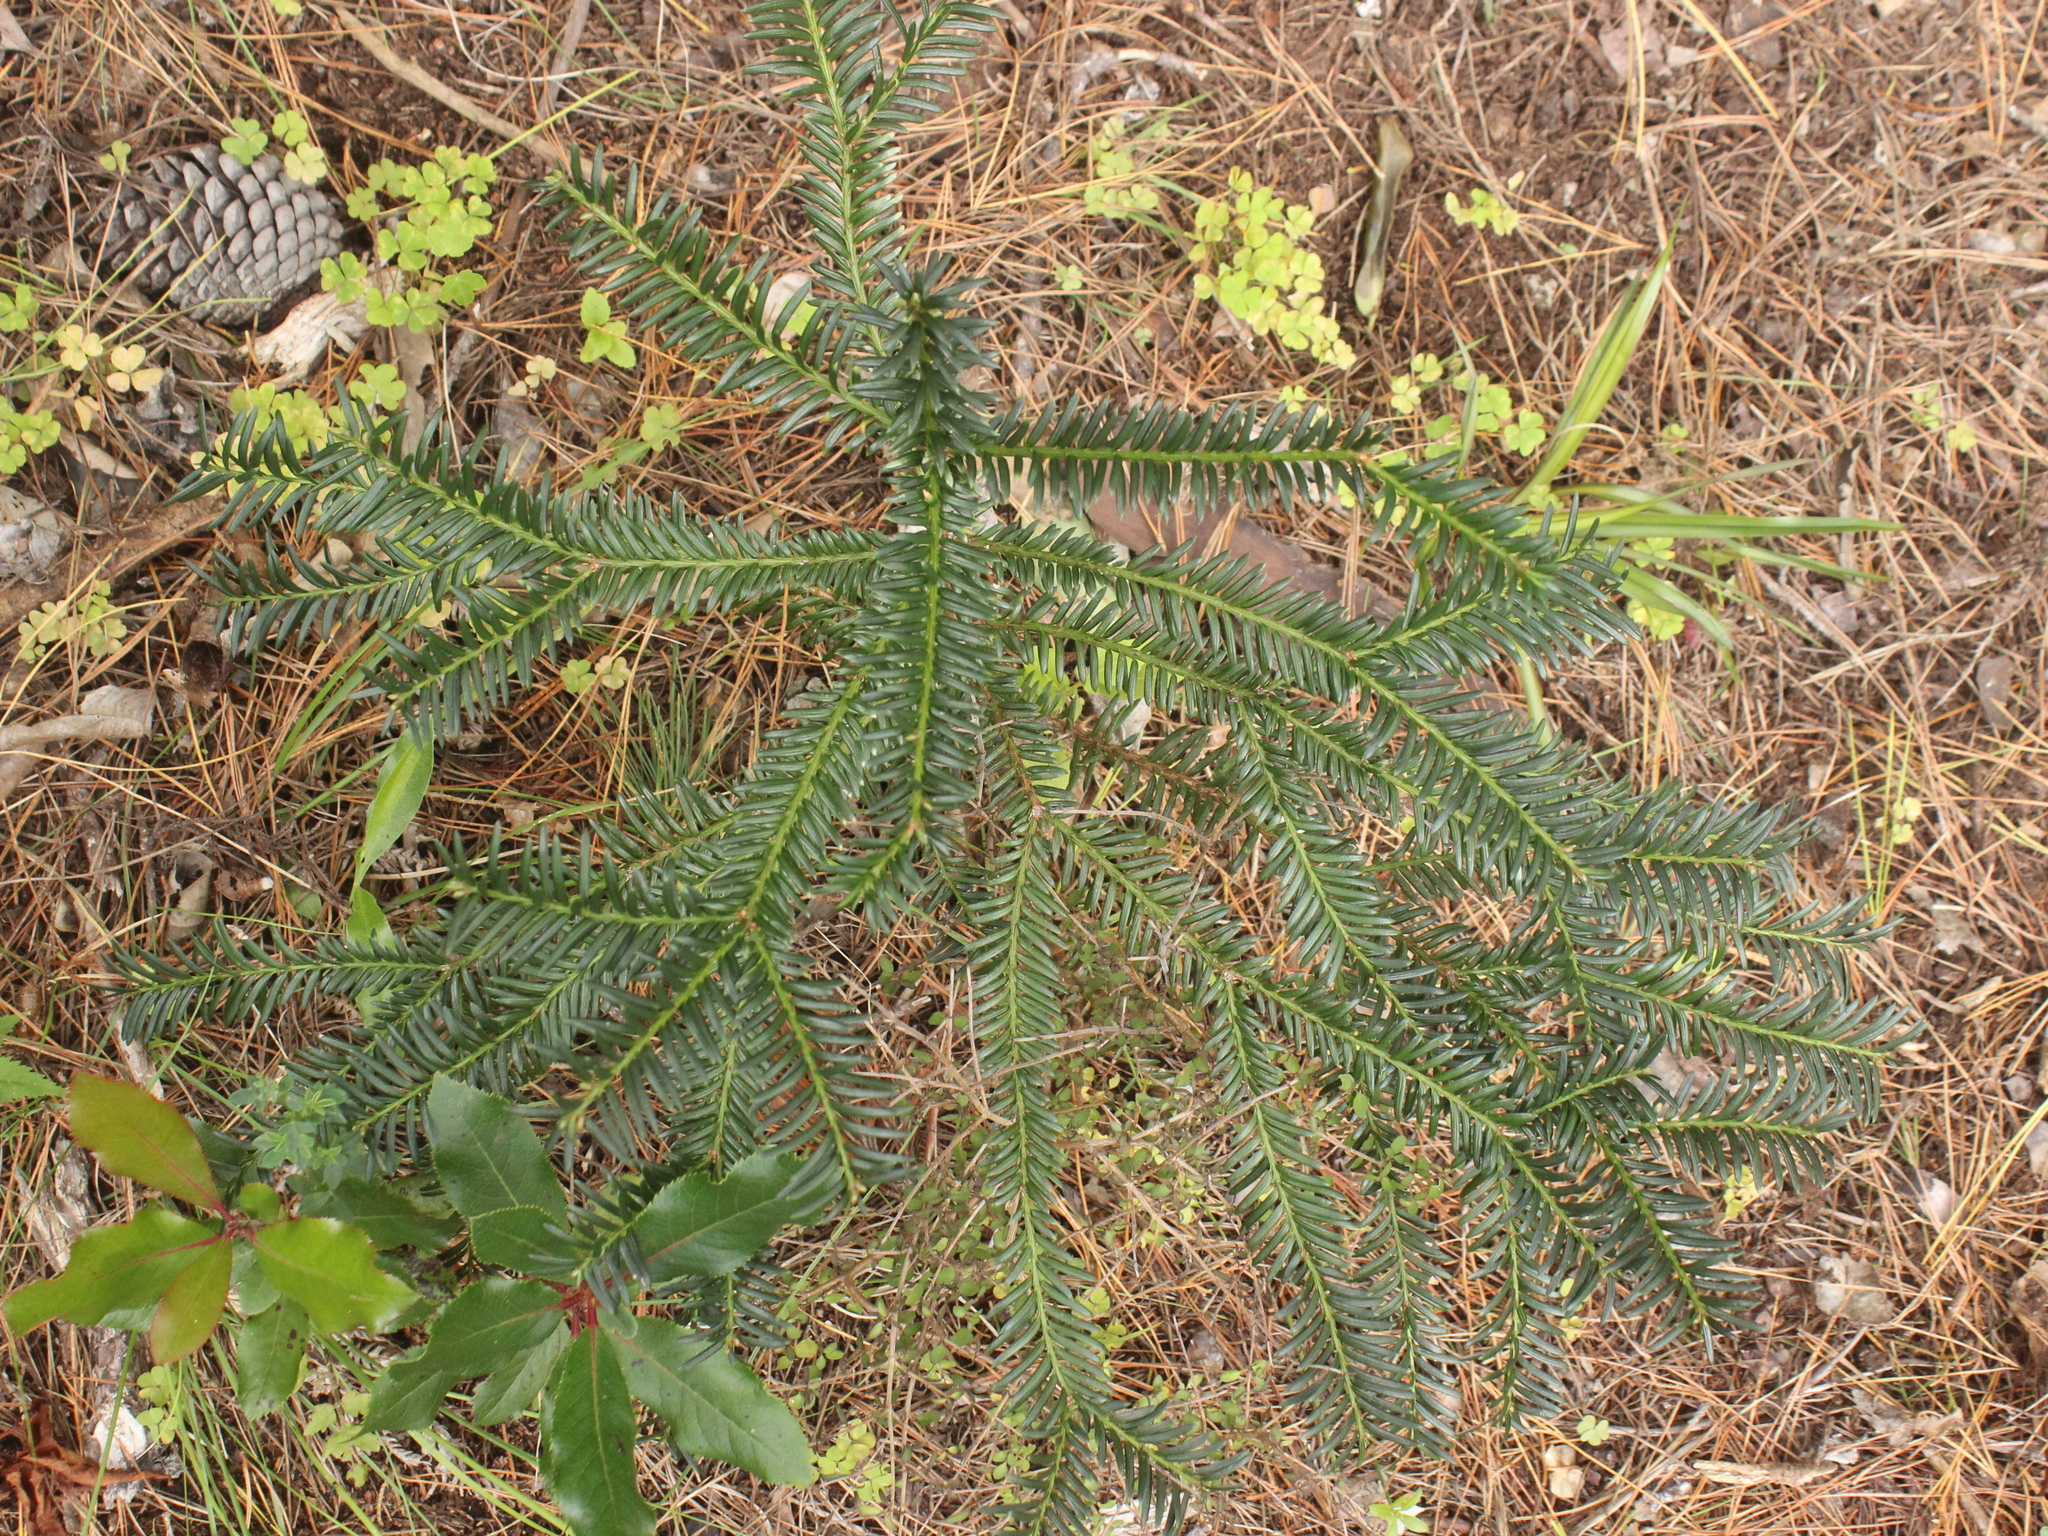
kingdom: Plantae
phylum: Tracheophyta
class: Pinopsida
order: Pinales
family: Taxaceae
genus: Taxus
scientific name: Taxus baccata
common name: Yew
